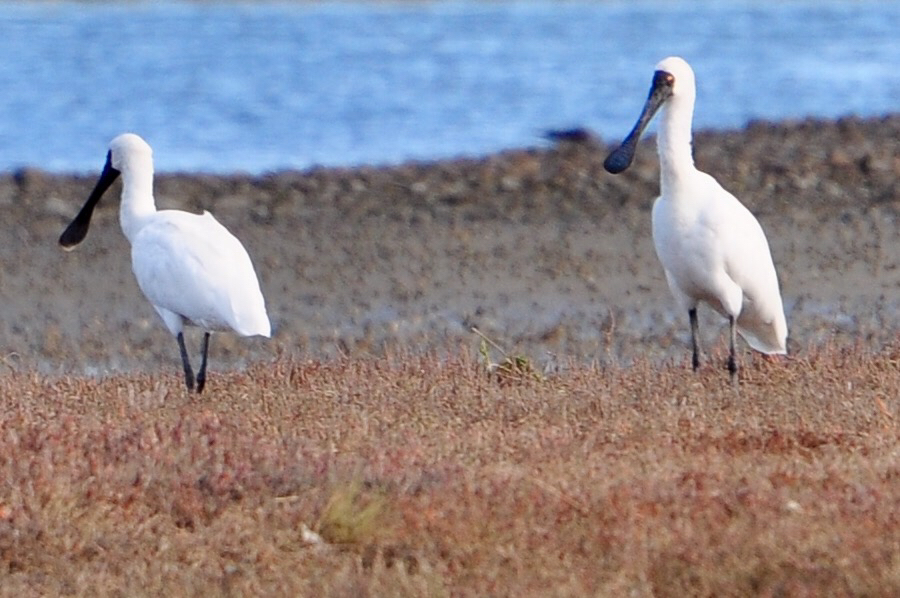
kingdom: Animalia
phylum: Chordata
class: Aves
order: Pelecaniformes
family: Threskiornithidae
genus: Platalea
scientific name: Platalea regia
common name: Royal spoonbill
